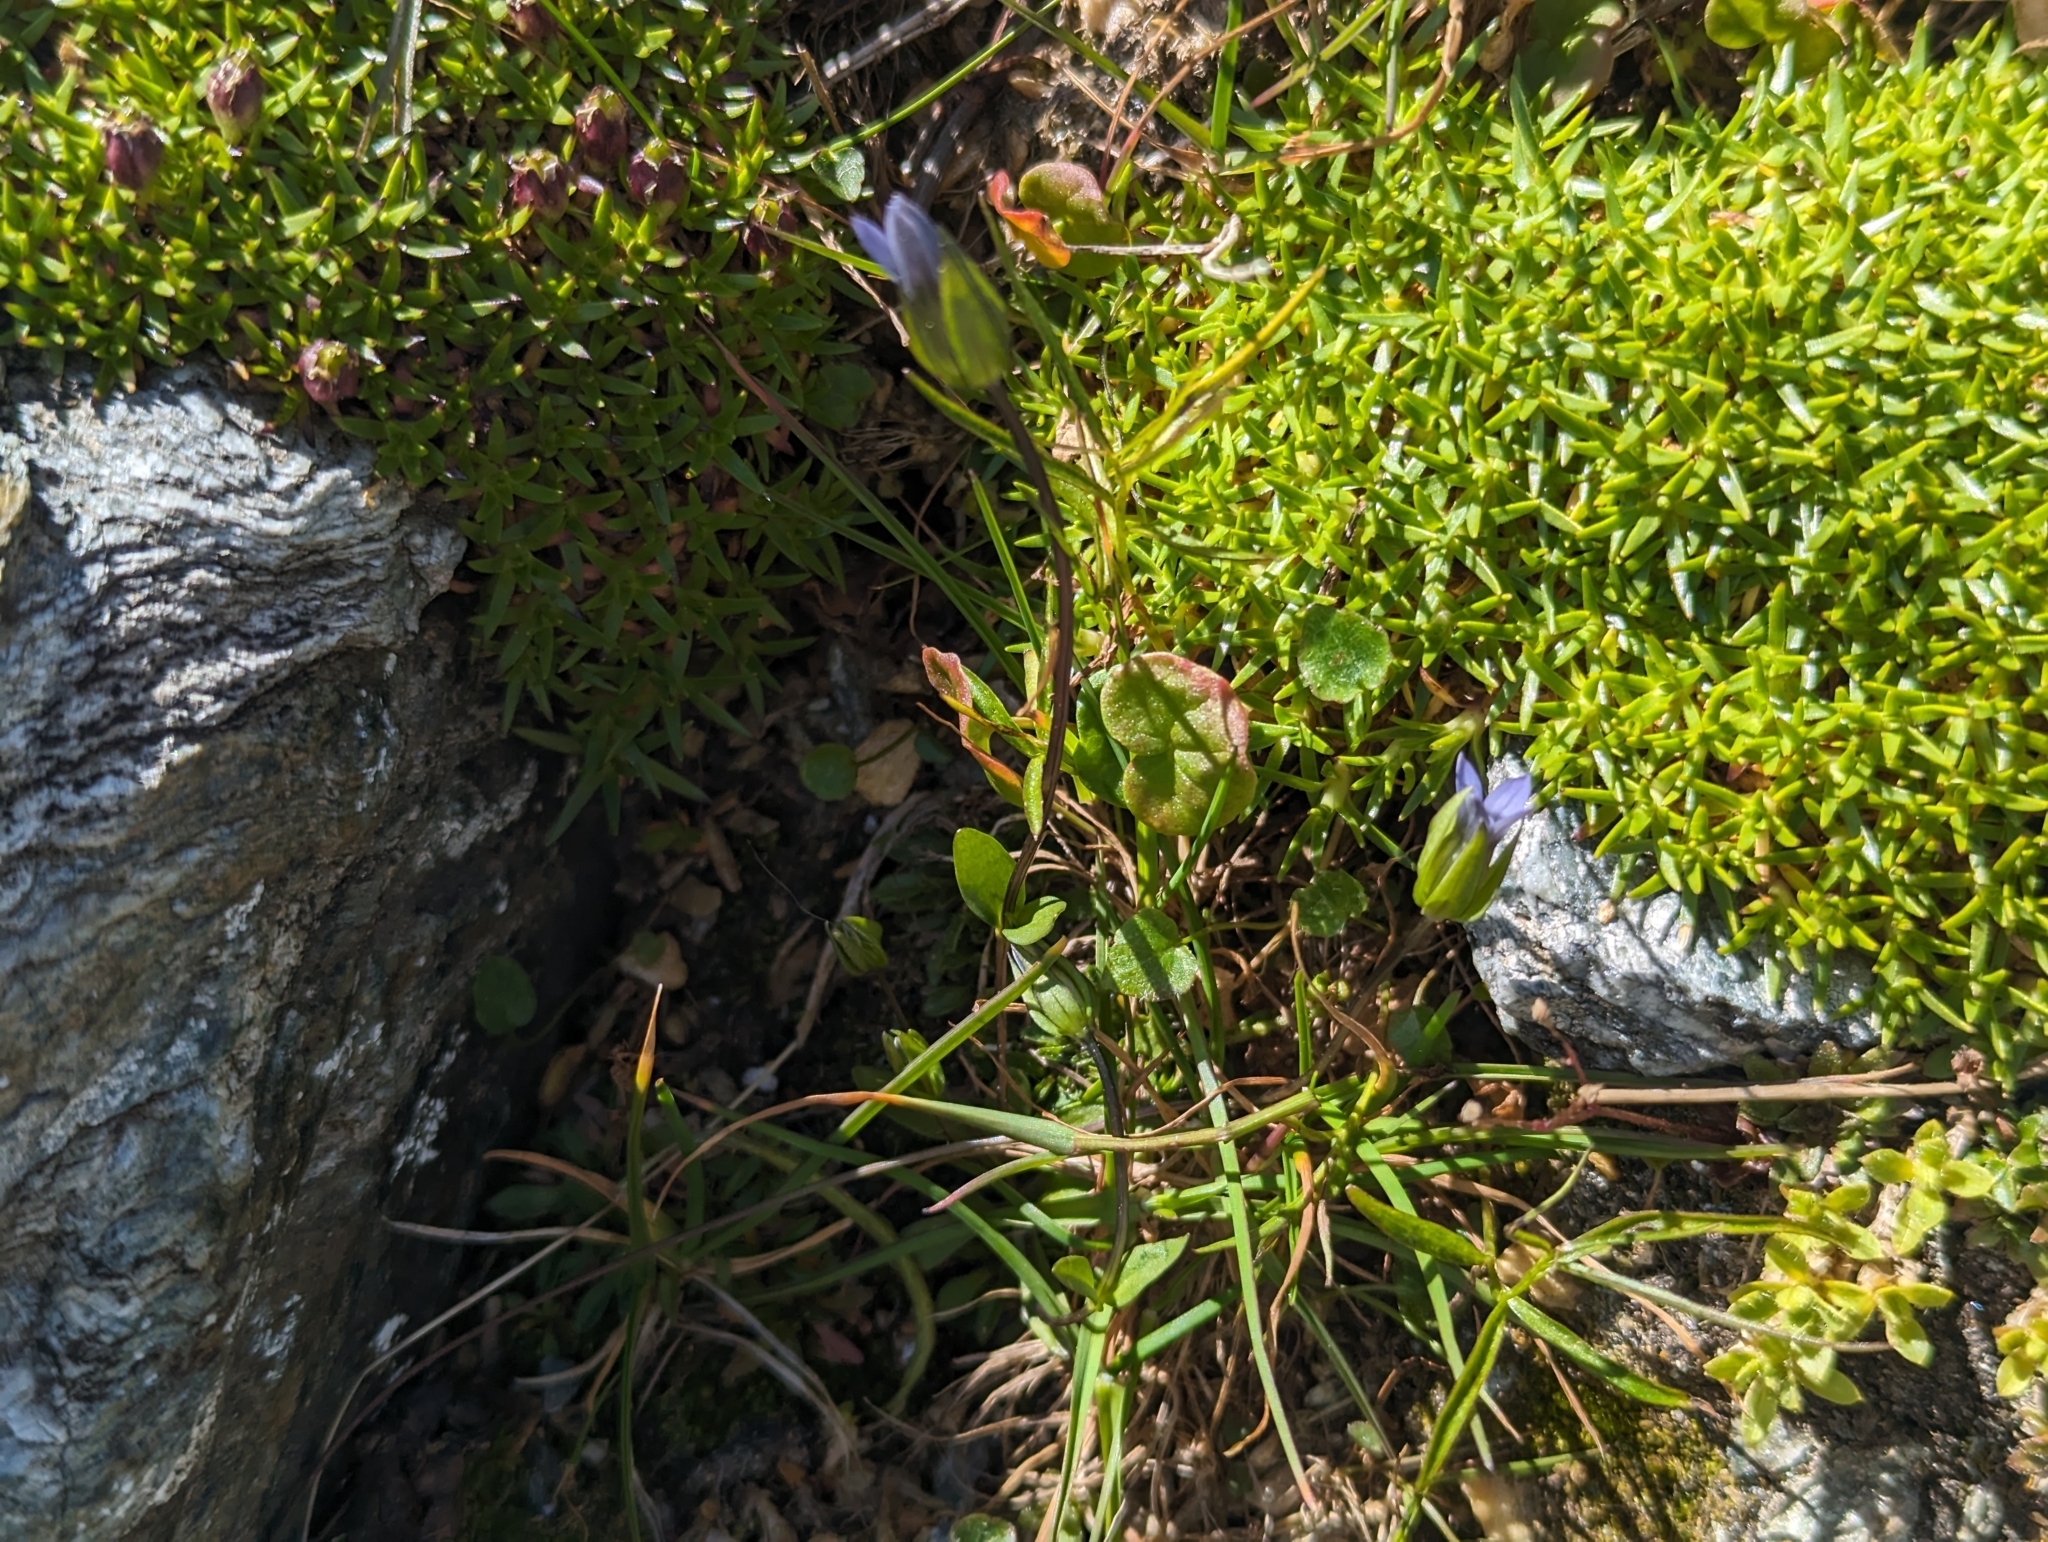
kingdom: Plantae
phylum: Tracheophyta
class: Magnoliopsida
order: Gentianales
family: Gentianaceae
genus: Comastoma
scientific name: Comastoma tenellum
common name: Dane's dwarf gentian
